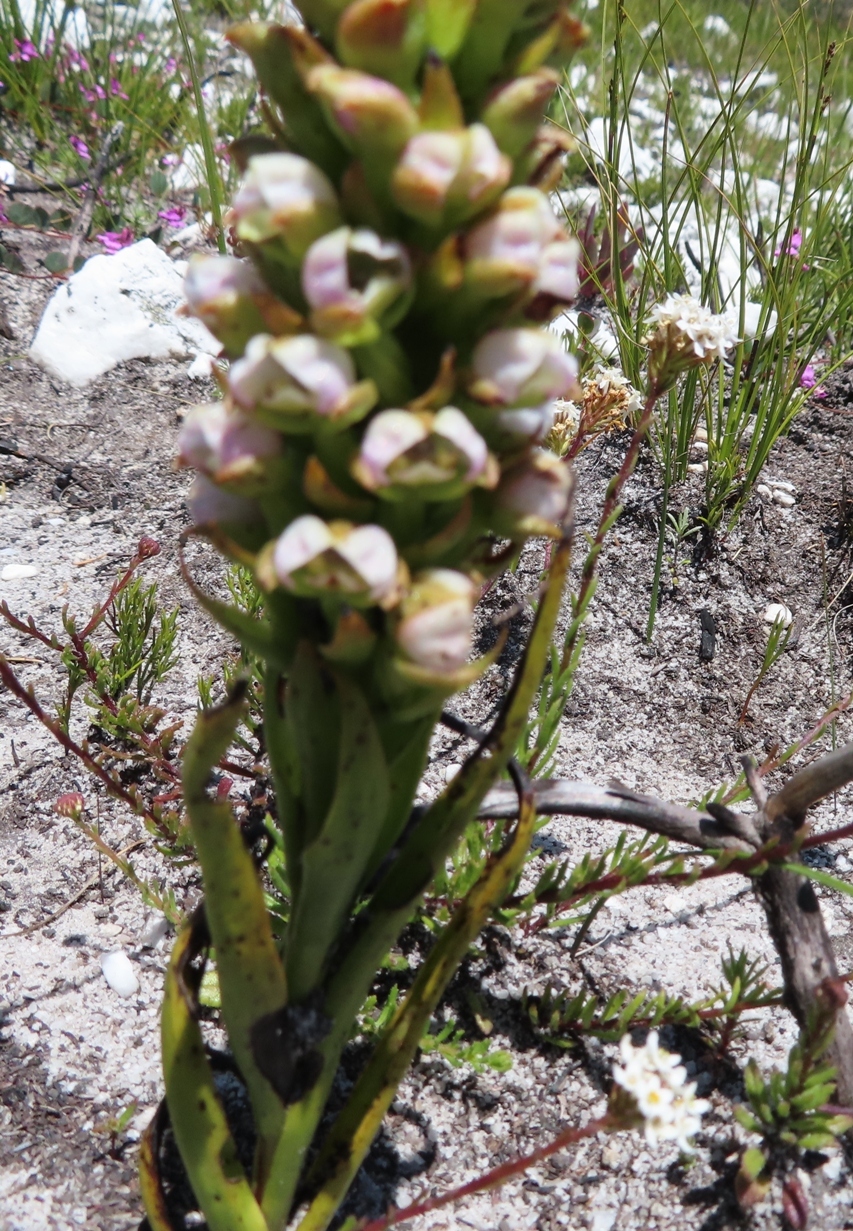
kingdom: Plantae
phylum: Tracheophyta
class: Liliopsida
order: Asparagales
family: Orchidaceae
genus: Evotella
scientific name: Evotella carnosa
